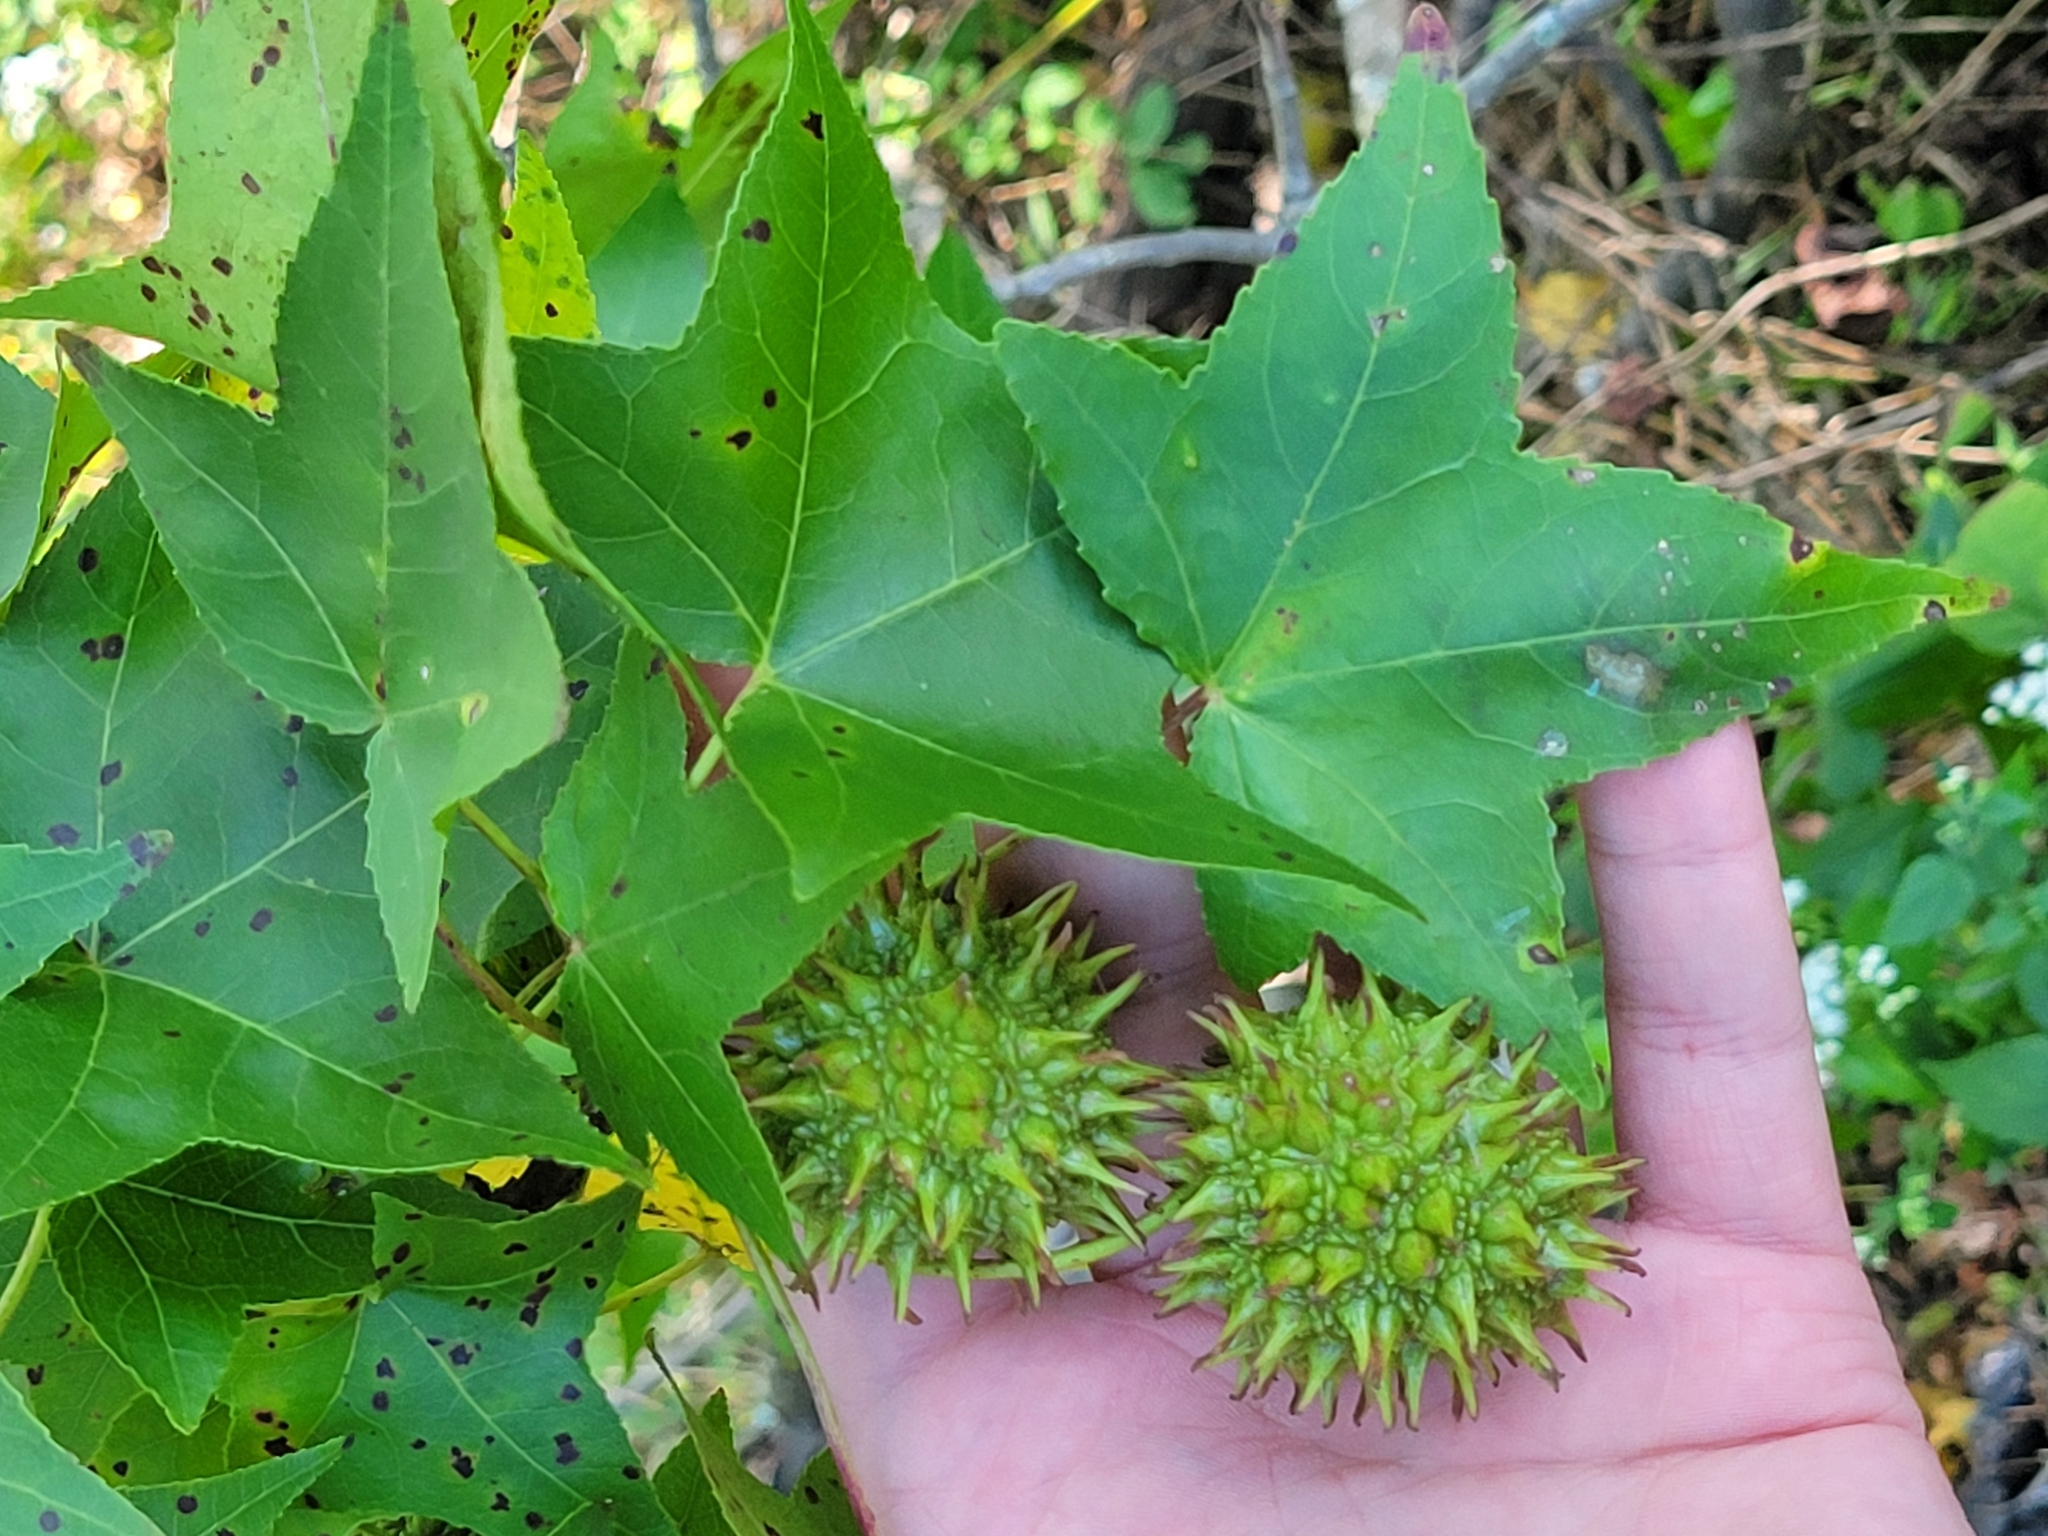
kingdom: Plantae
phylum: Tracheophyta
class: Magnoliopsida
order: Saxifragales
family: Altingiaceae
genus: Liquidambar
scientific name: Liquidambar styraciflua
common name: Sweet gum
